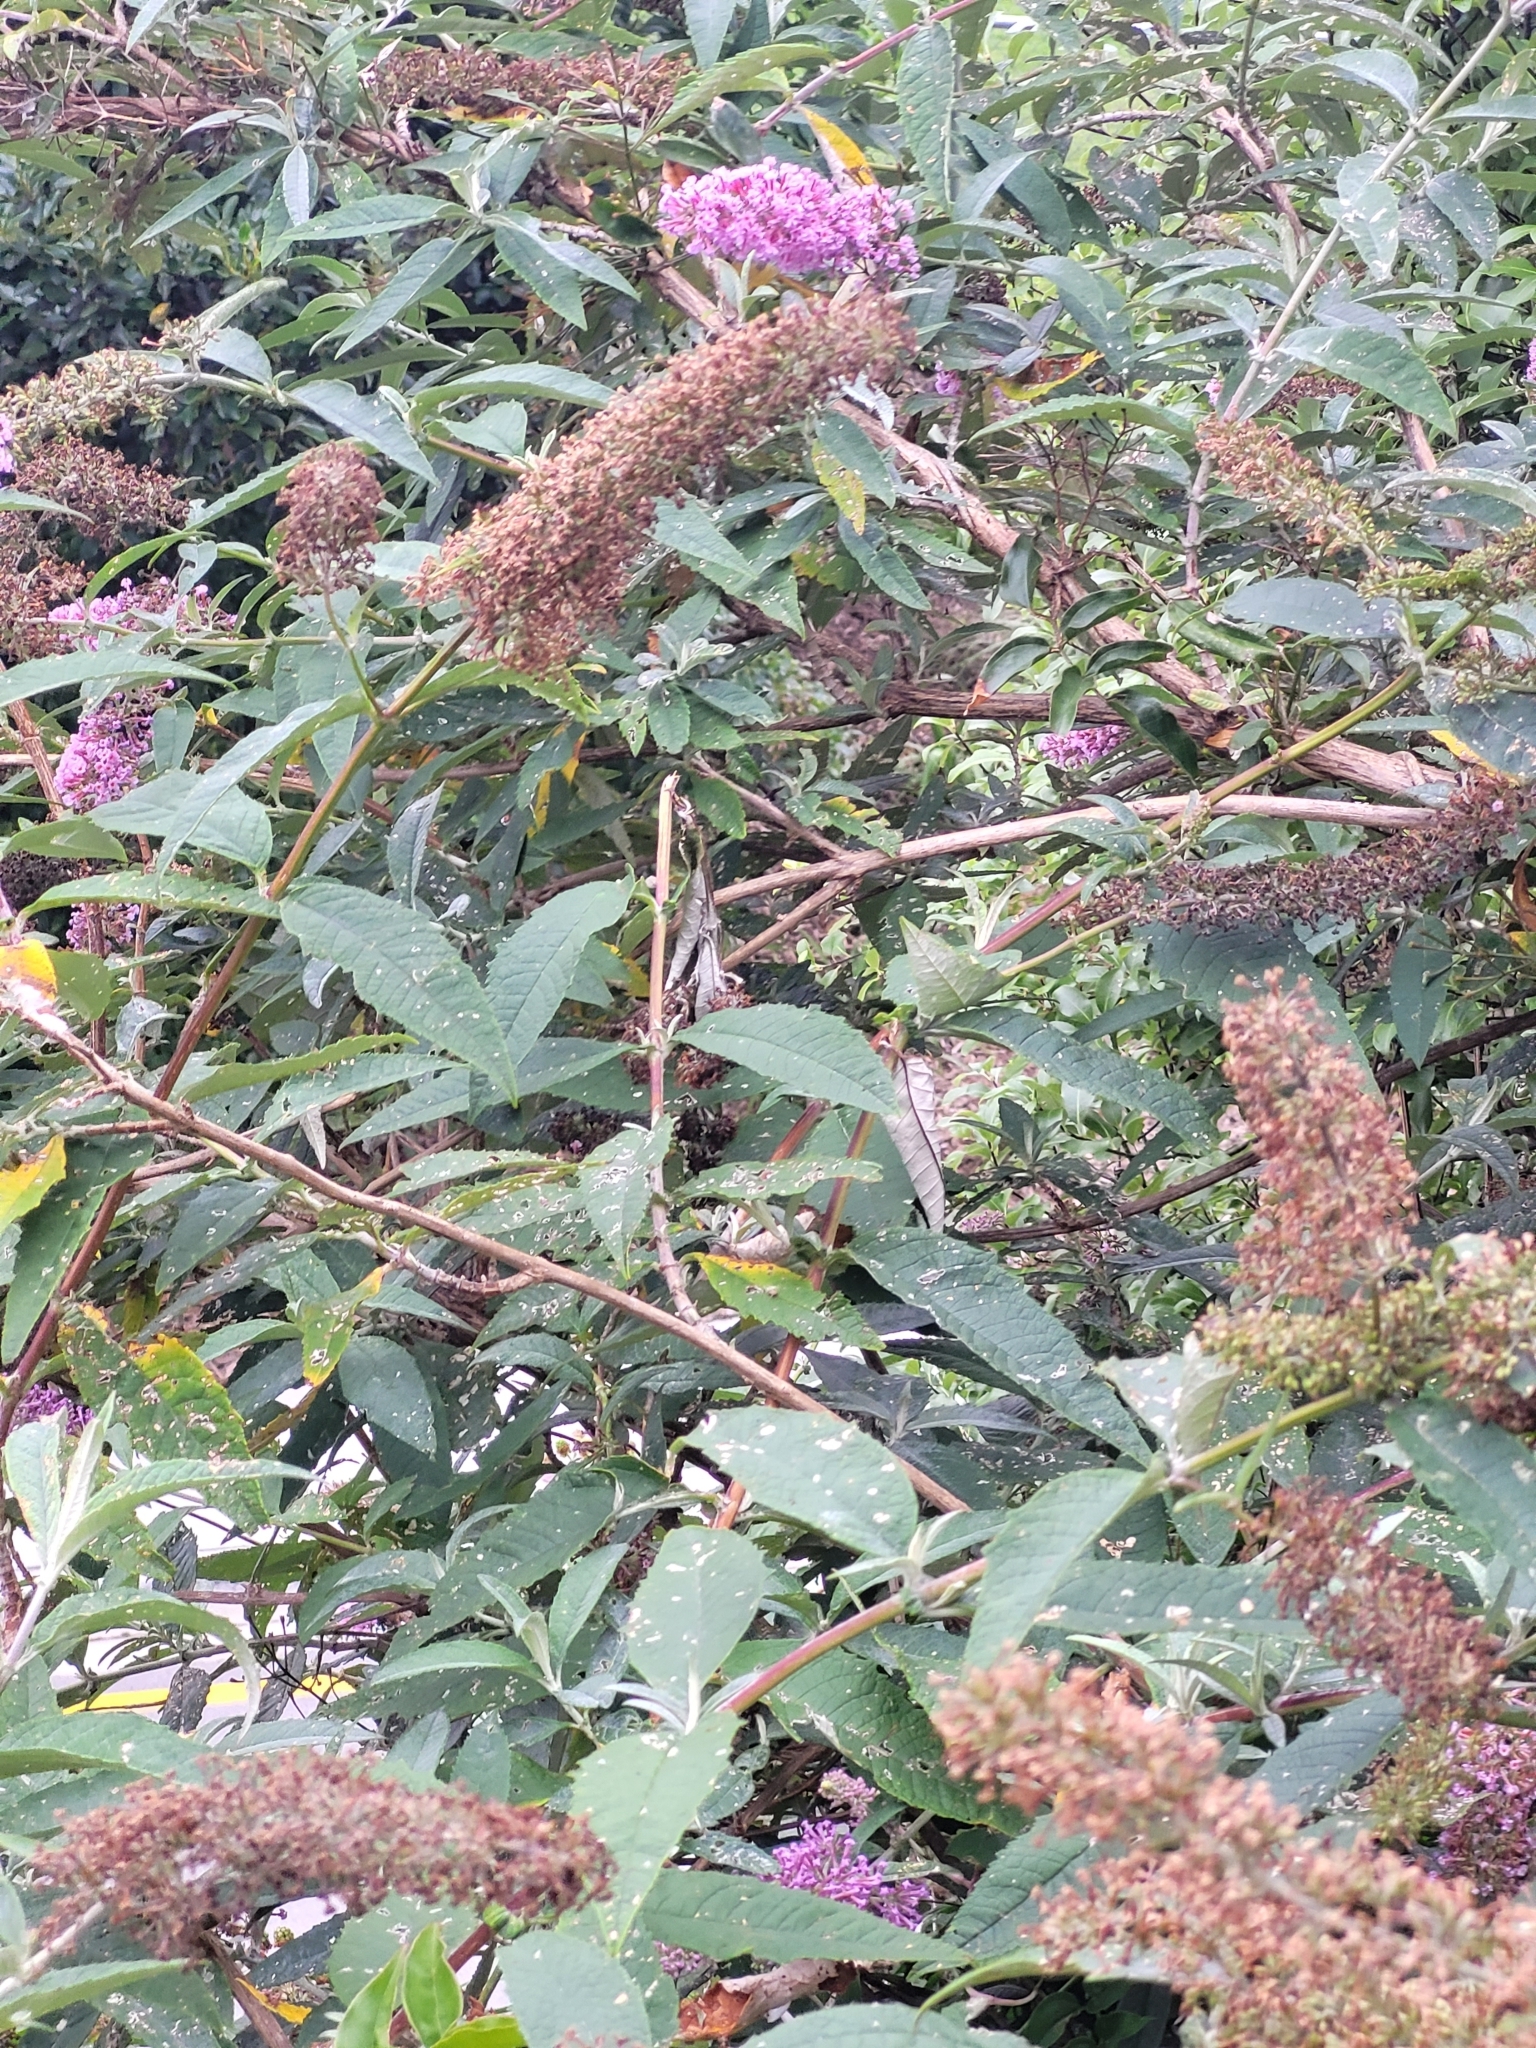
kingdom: Plantae
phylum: Tracheophyta
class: Magnoliopsida
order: Lamiales
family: Scrophulariaceae
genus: Buddleja
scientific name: Buddleja davidii
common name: Butterfly-bush
